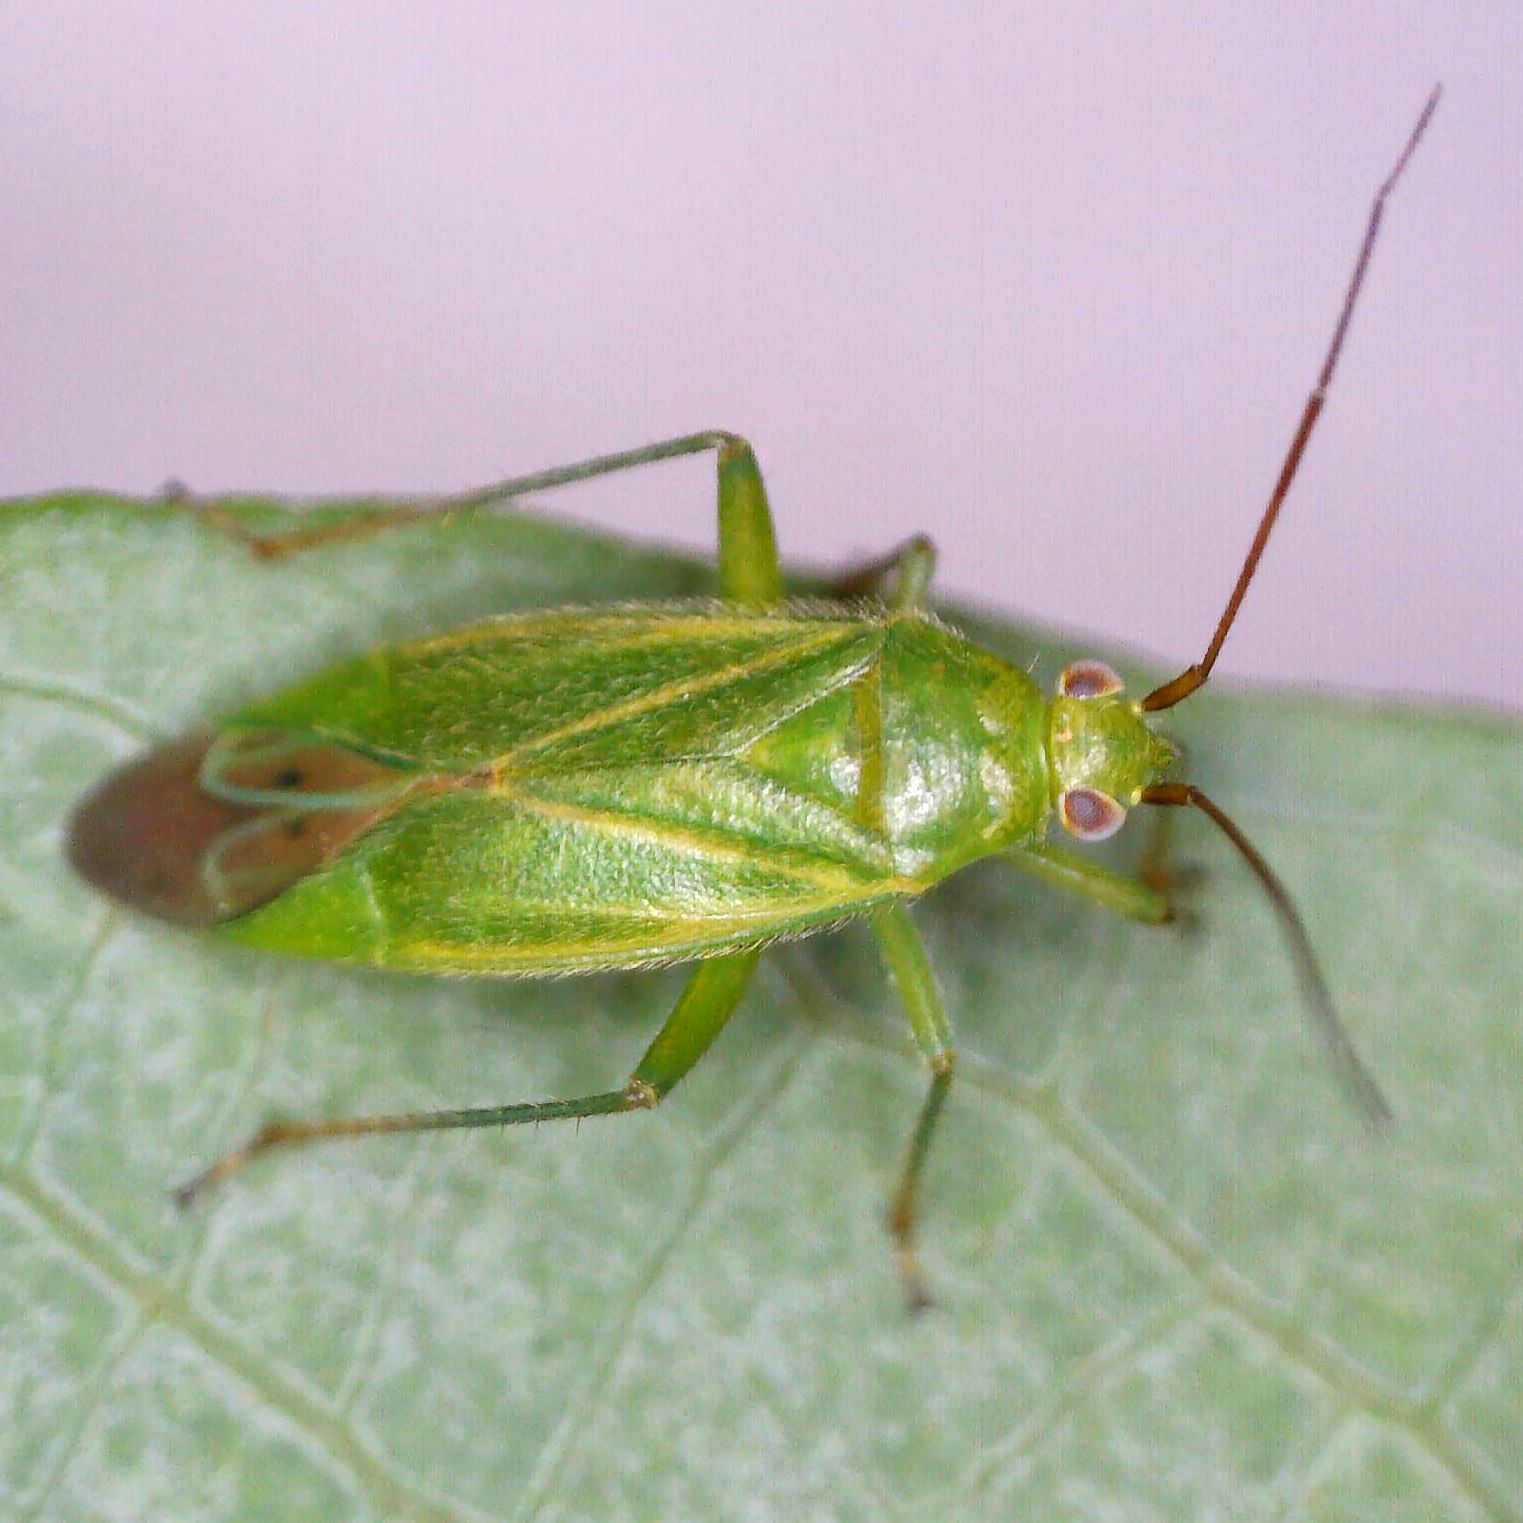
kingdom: Animalia
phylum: Arthropoda
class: Insecta
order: Hemiptera
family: Miridae
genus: Orthotylus
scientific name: Orthotylus marginalis
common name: Dark green apple capsid
